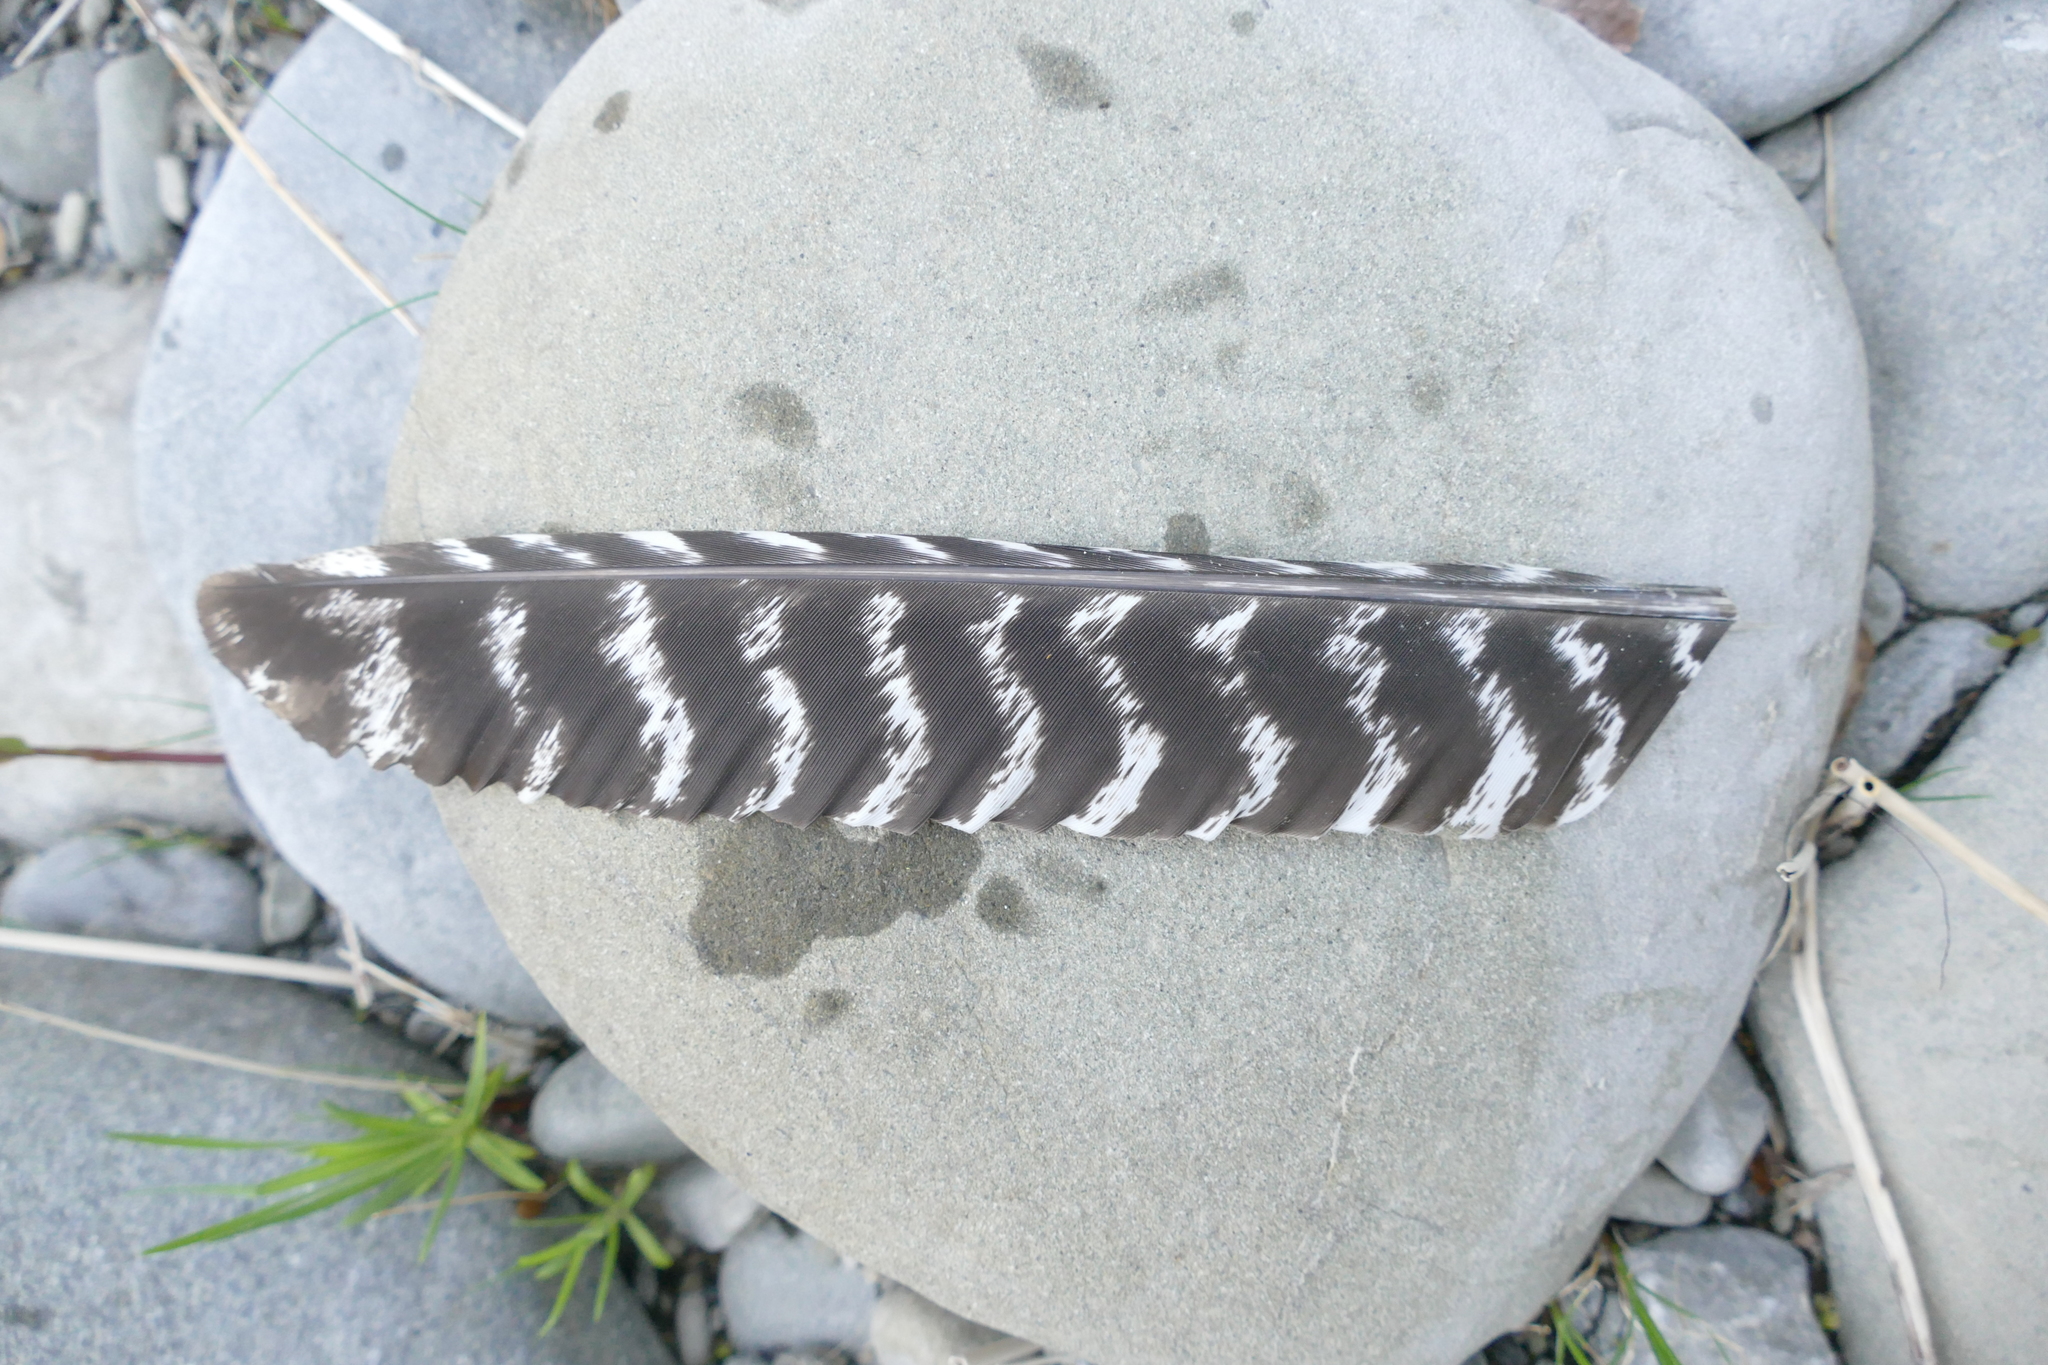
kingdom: Animalia
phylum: Chordata
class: Aves
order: Galliformes
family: Phasianidae
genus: Meleagris
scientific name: Meleagris gallopavo
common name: Wild turkey
